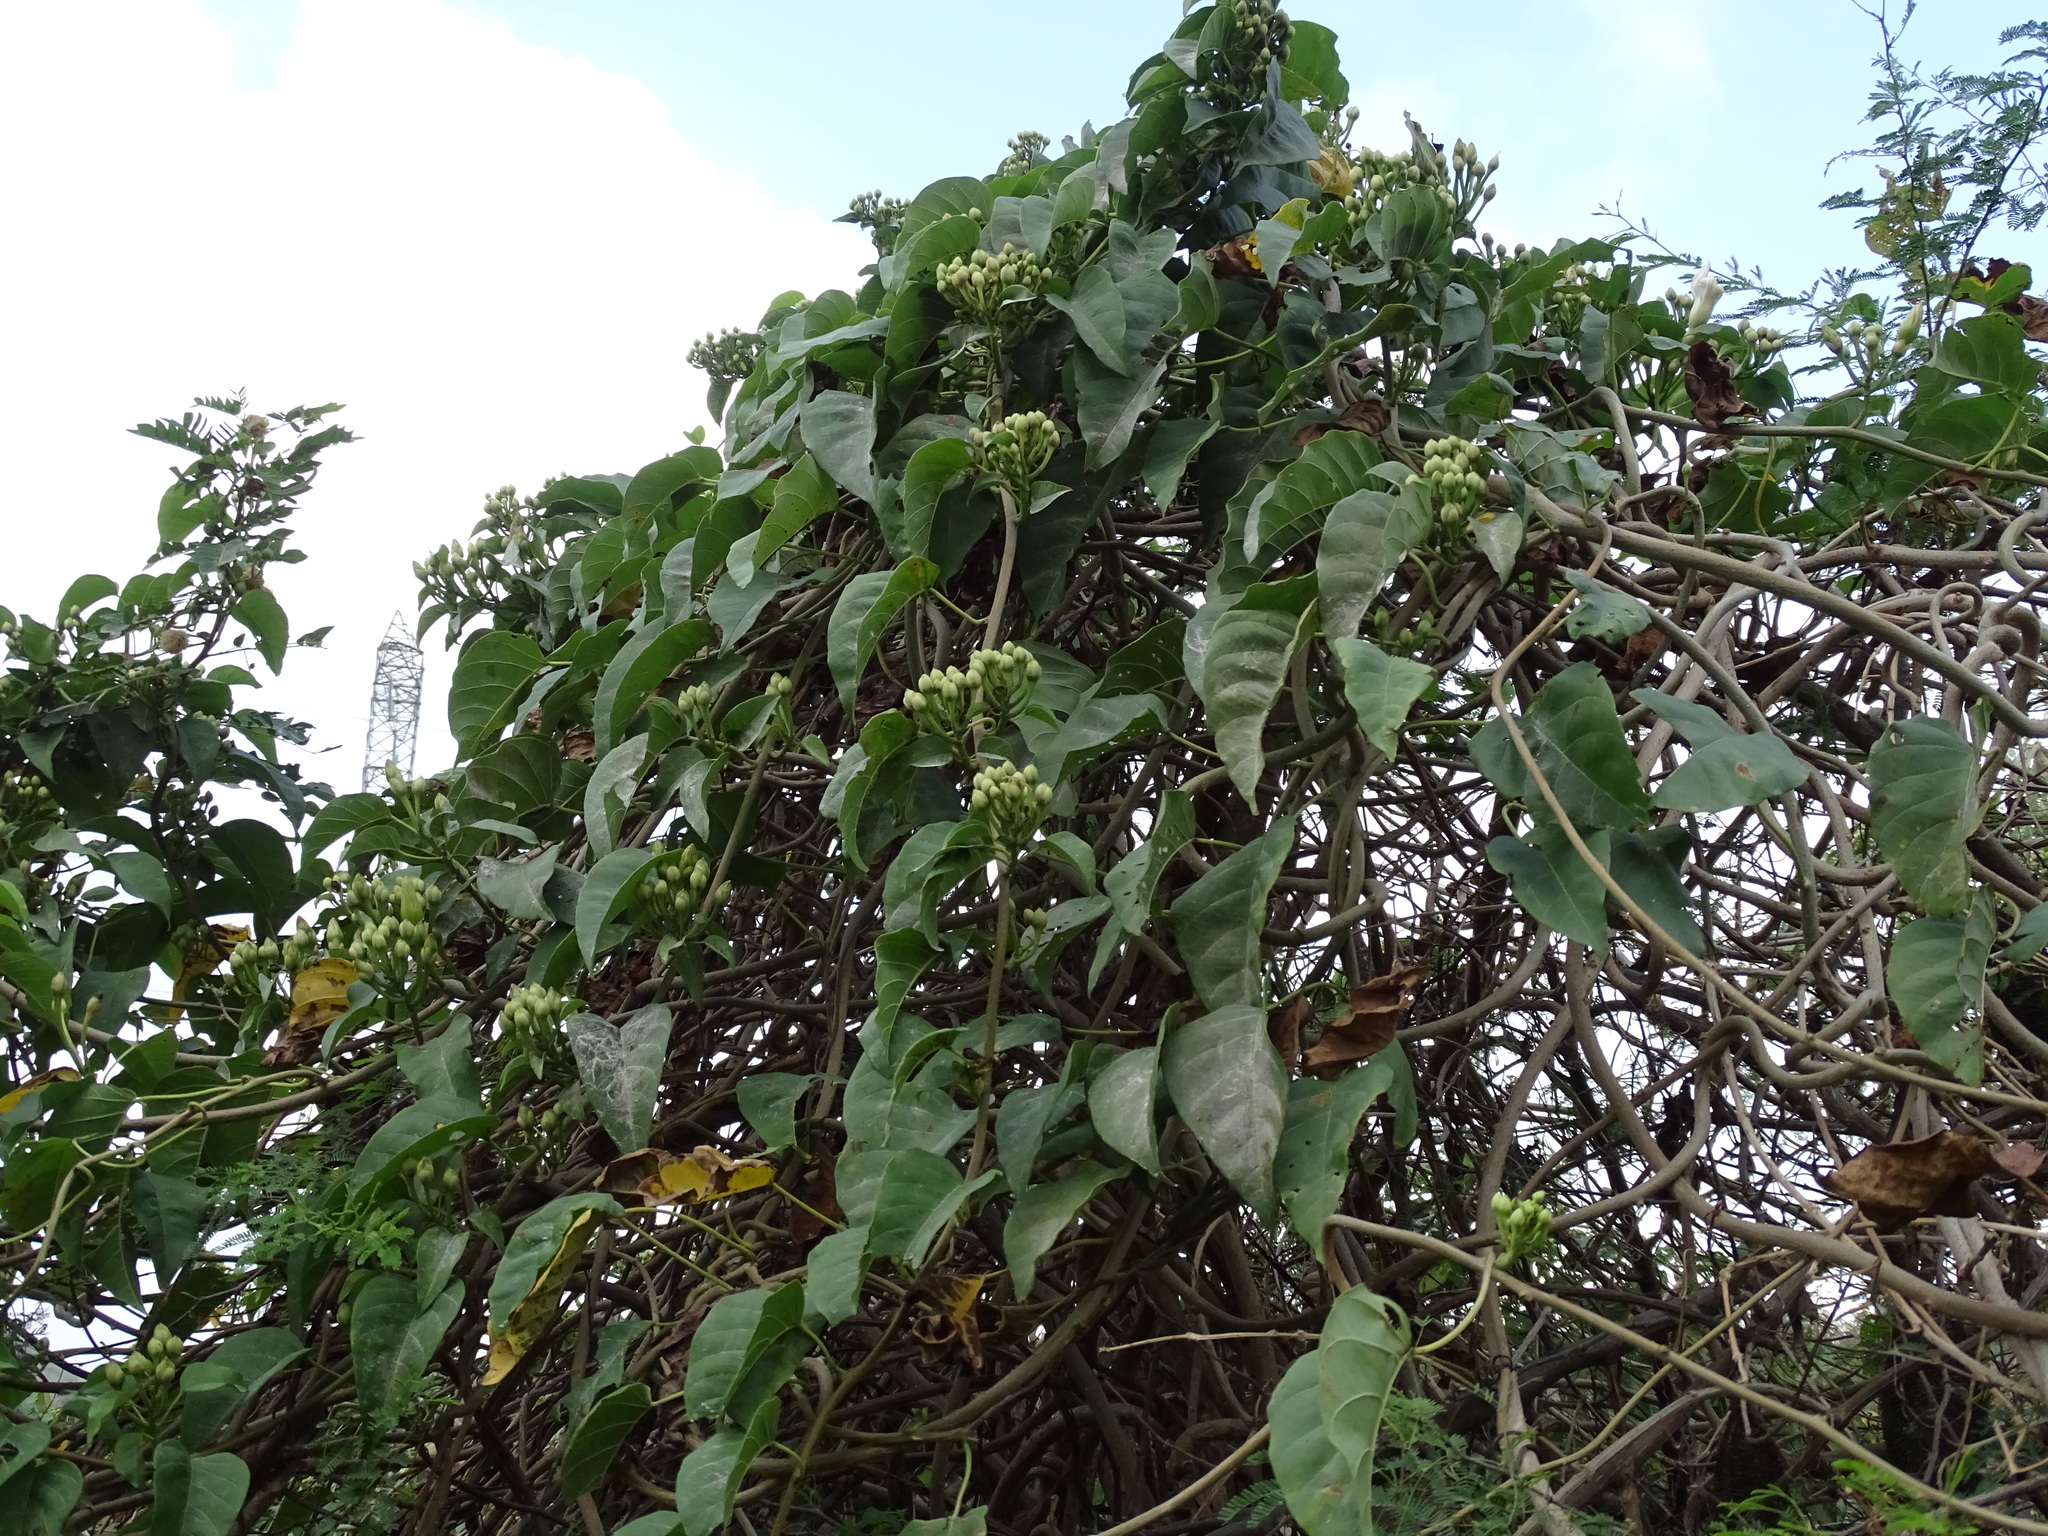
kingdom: Plantae
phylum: Tracheophyta
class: Magnoliopsida
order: Solanales
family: Convolvulaceae
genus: Ipomoea
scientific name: Ipomoea populina
